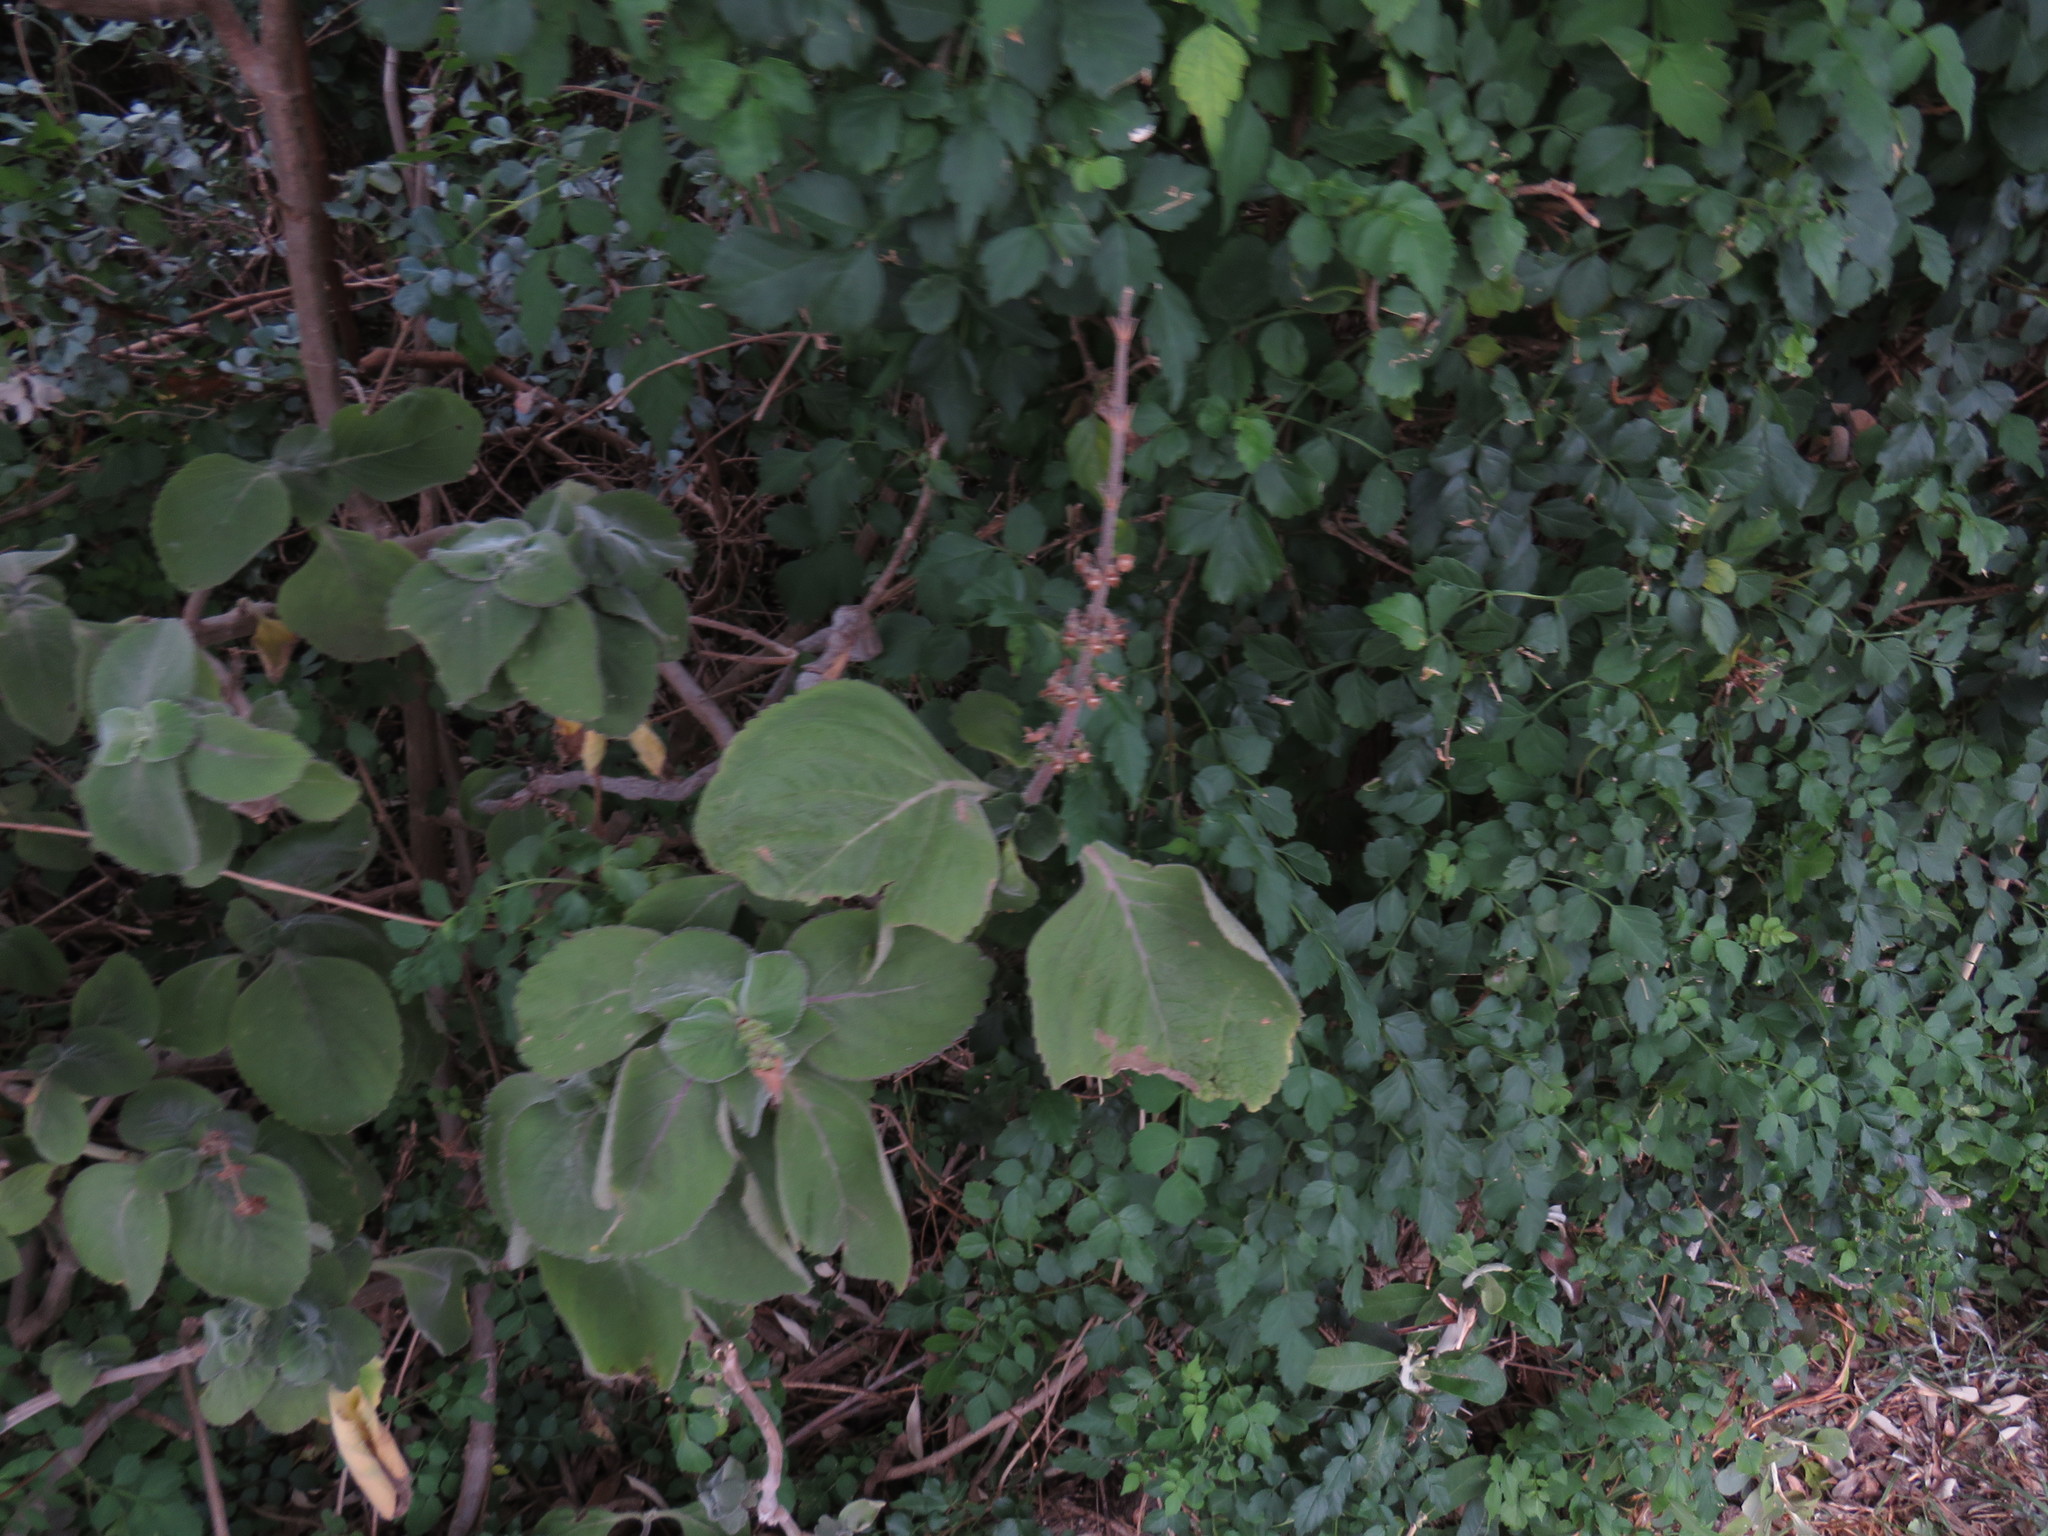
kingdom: Plantae
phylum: Tracheophyta
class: Magnoliopsida
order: Lamiales
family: Lamiaceae
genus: Coleus
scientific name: Coleus barbatus
